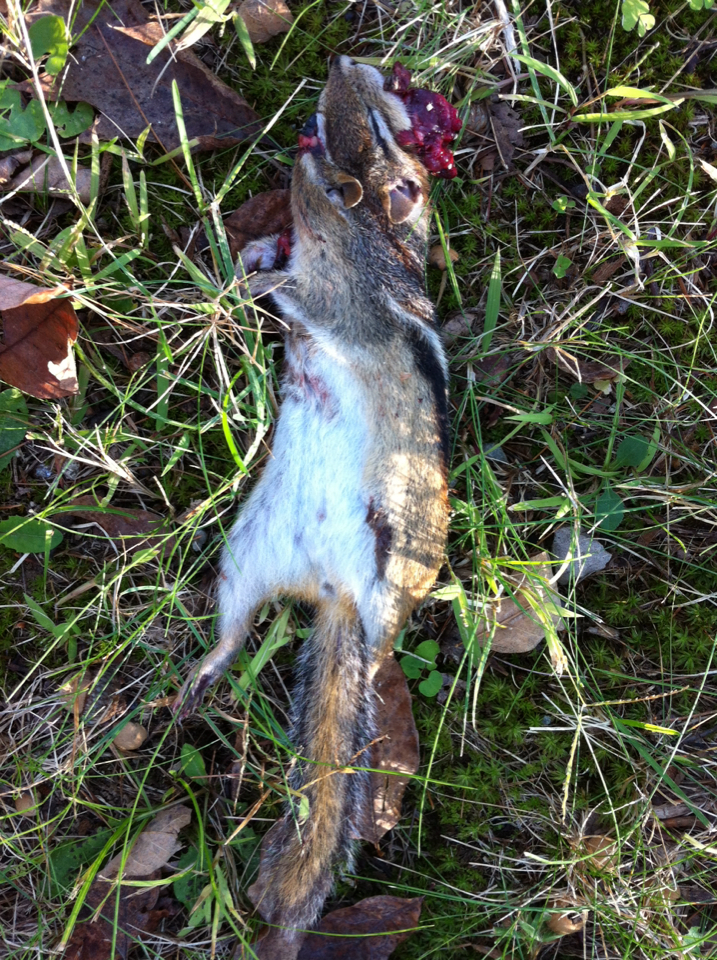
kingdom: Animalia
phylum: Chordata
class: Mammalia
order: Rodentia
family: Sciuridae
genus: Tamias
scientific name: Tamias striatus
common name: Eastern chipmunk
